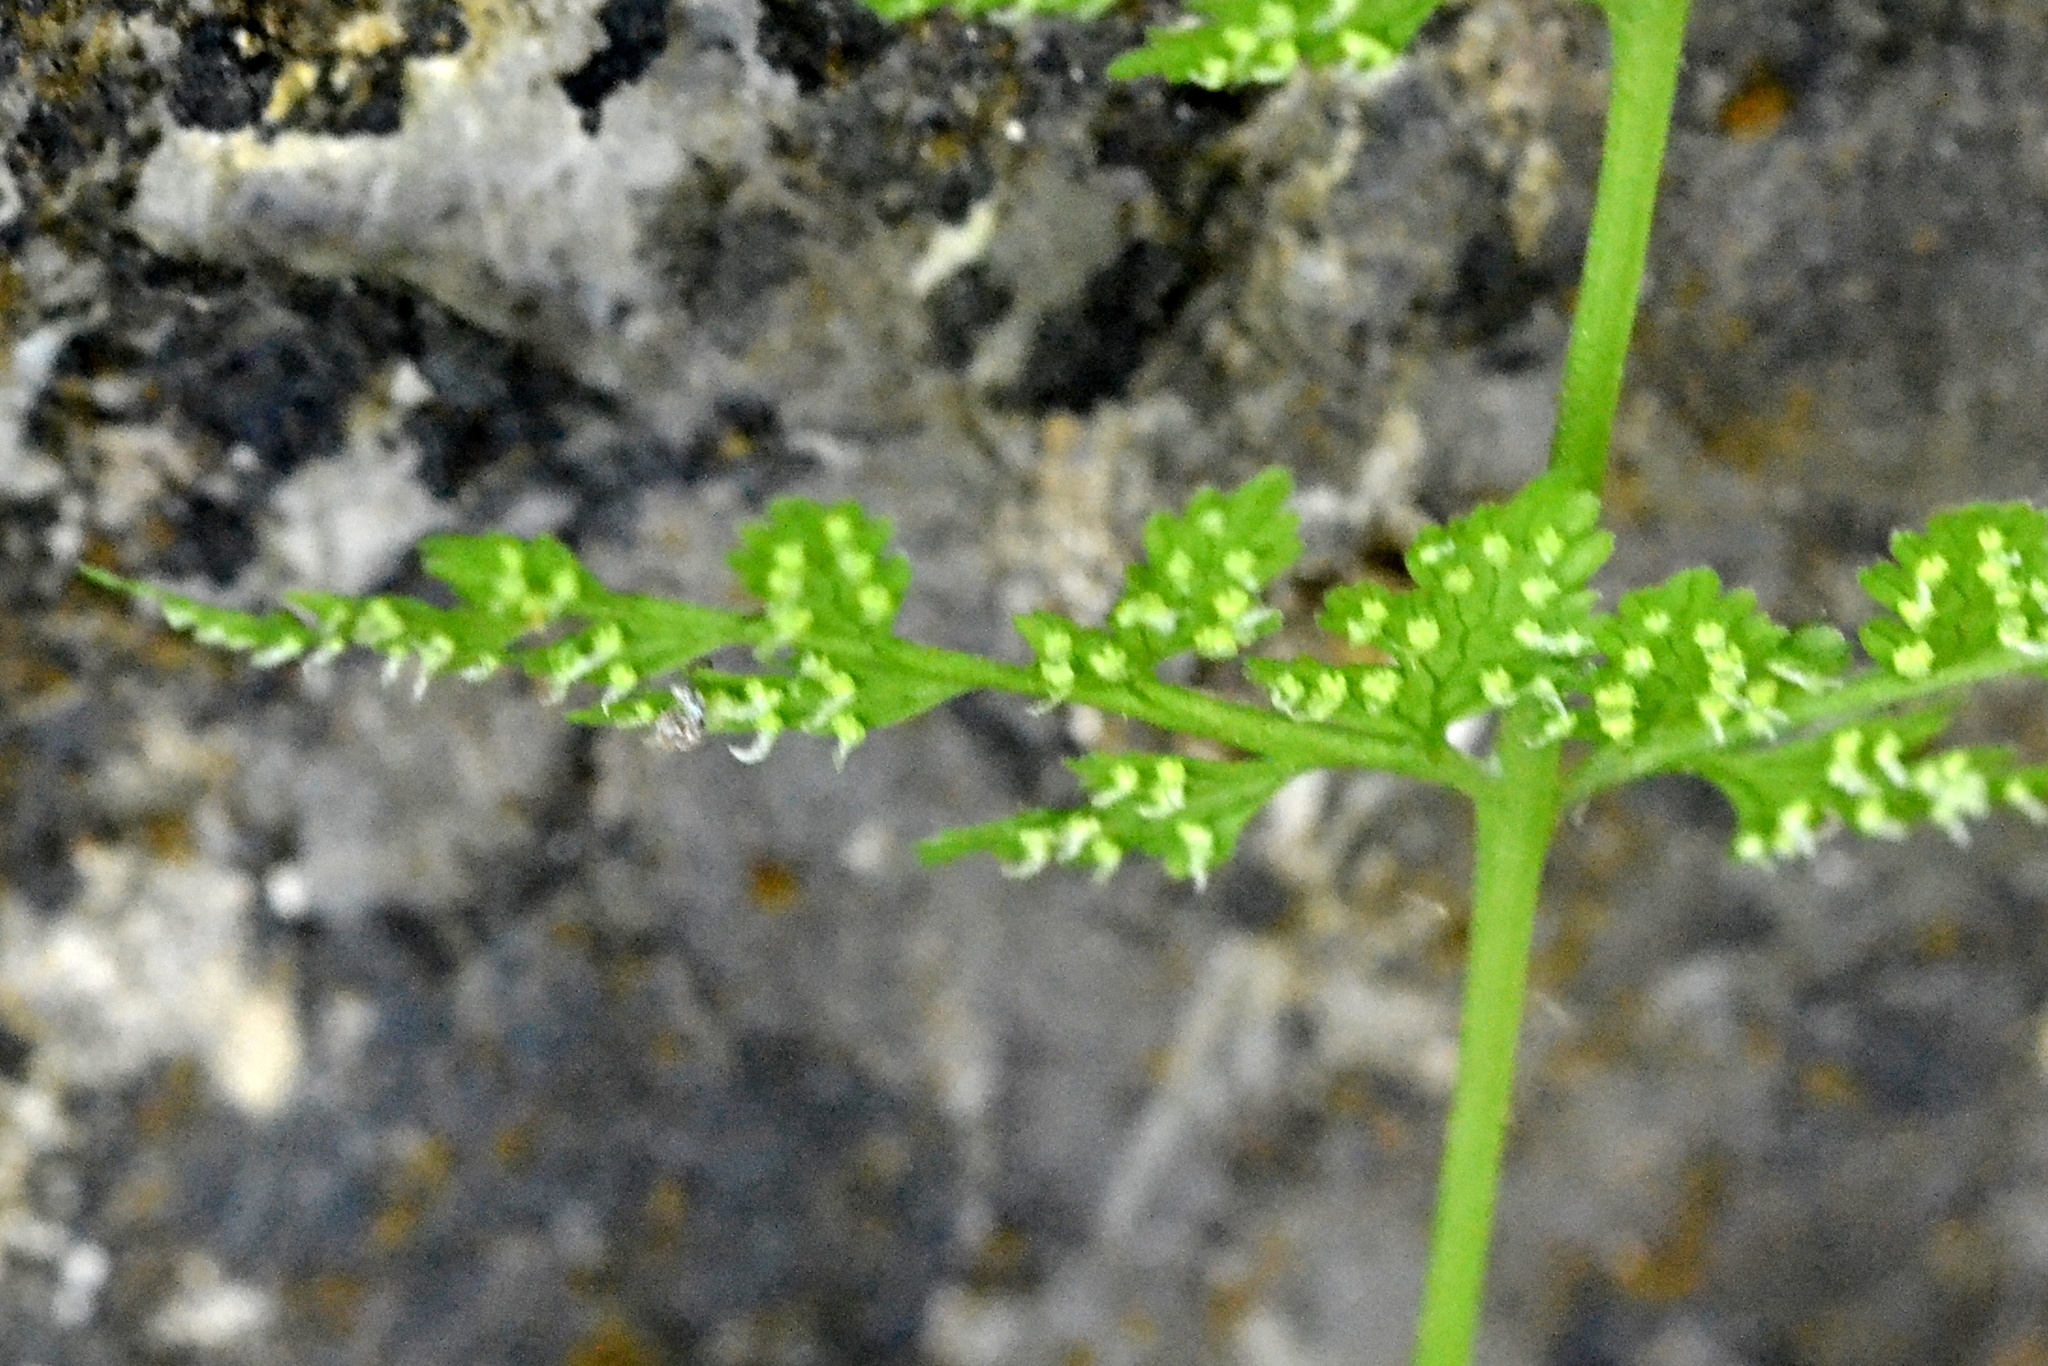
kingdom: Plantae
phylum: Tracheophyta
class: Polypodiopsida
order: Polypodiales
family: Cystopteridaceae
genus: Cystopteris
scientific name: Cystopteris fragilis
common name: Brittle bladder fern
